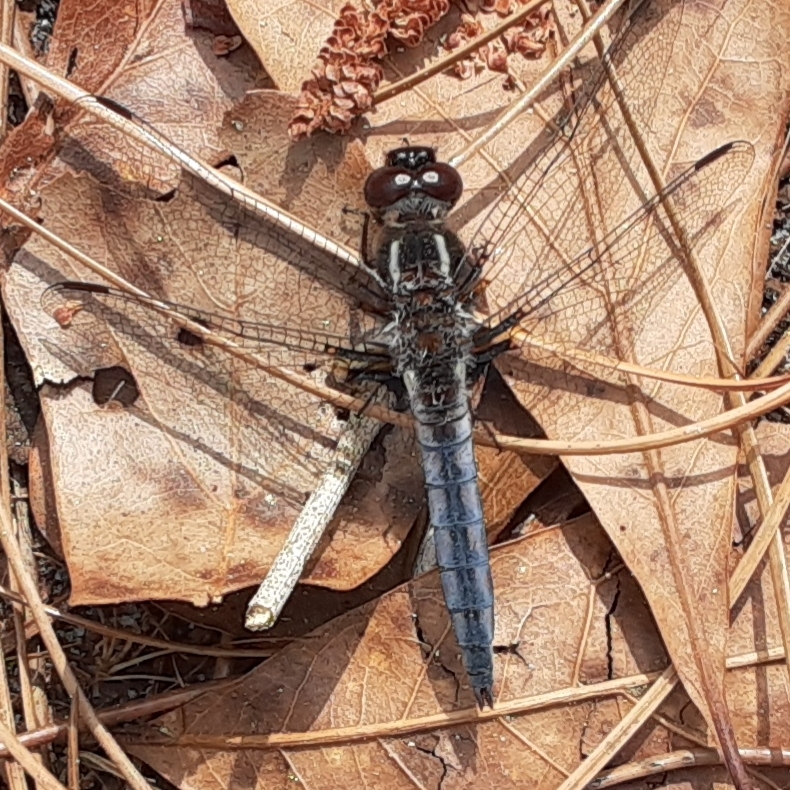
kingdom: Animalia
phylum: Arthropoda
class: Insecta
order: Odonata
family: Libellulidae
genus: Ladona
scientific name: Ladona deplanata
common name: Blue corporal
